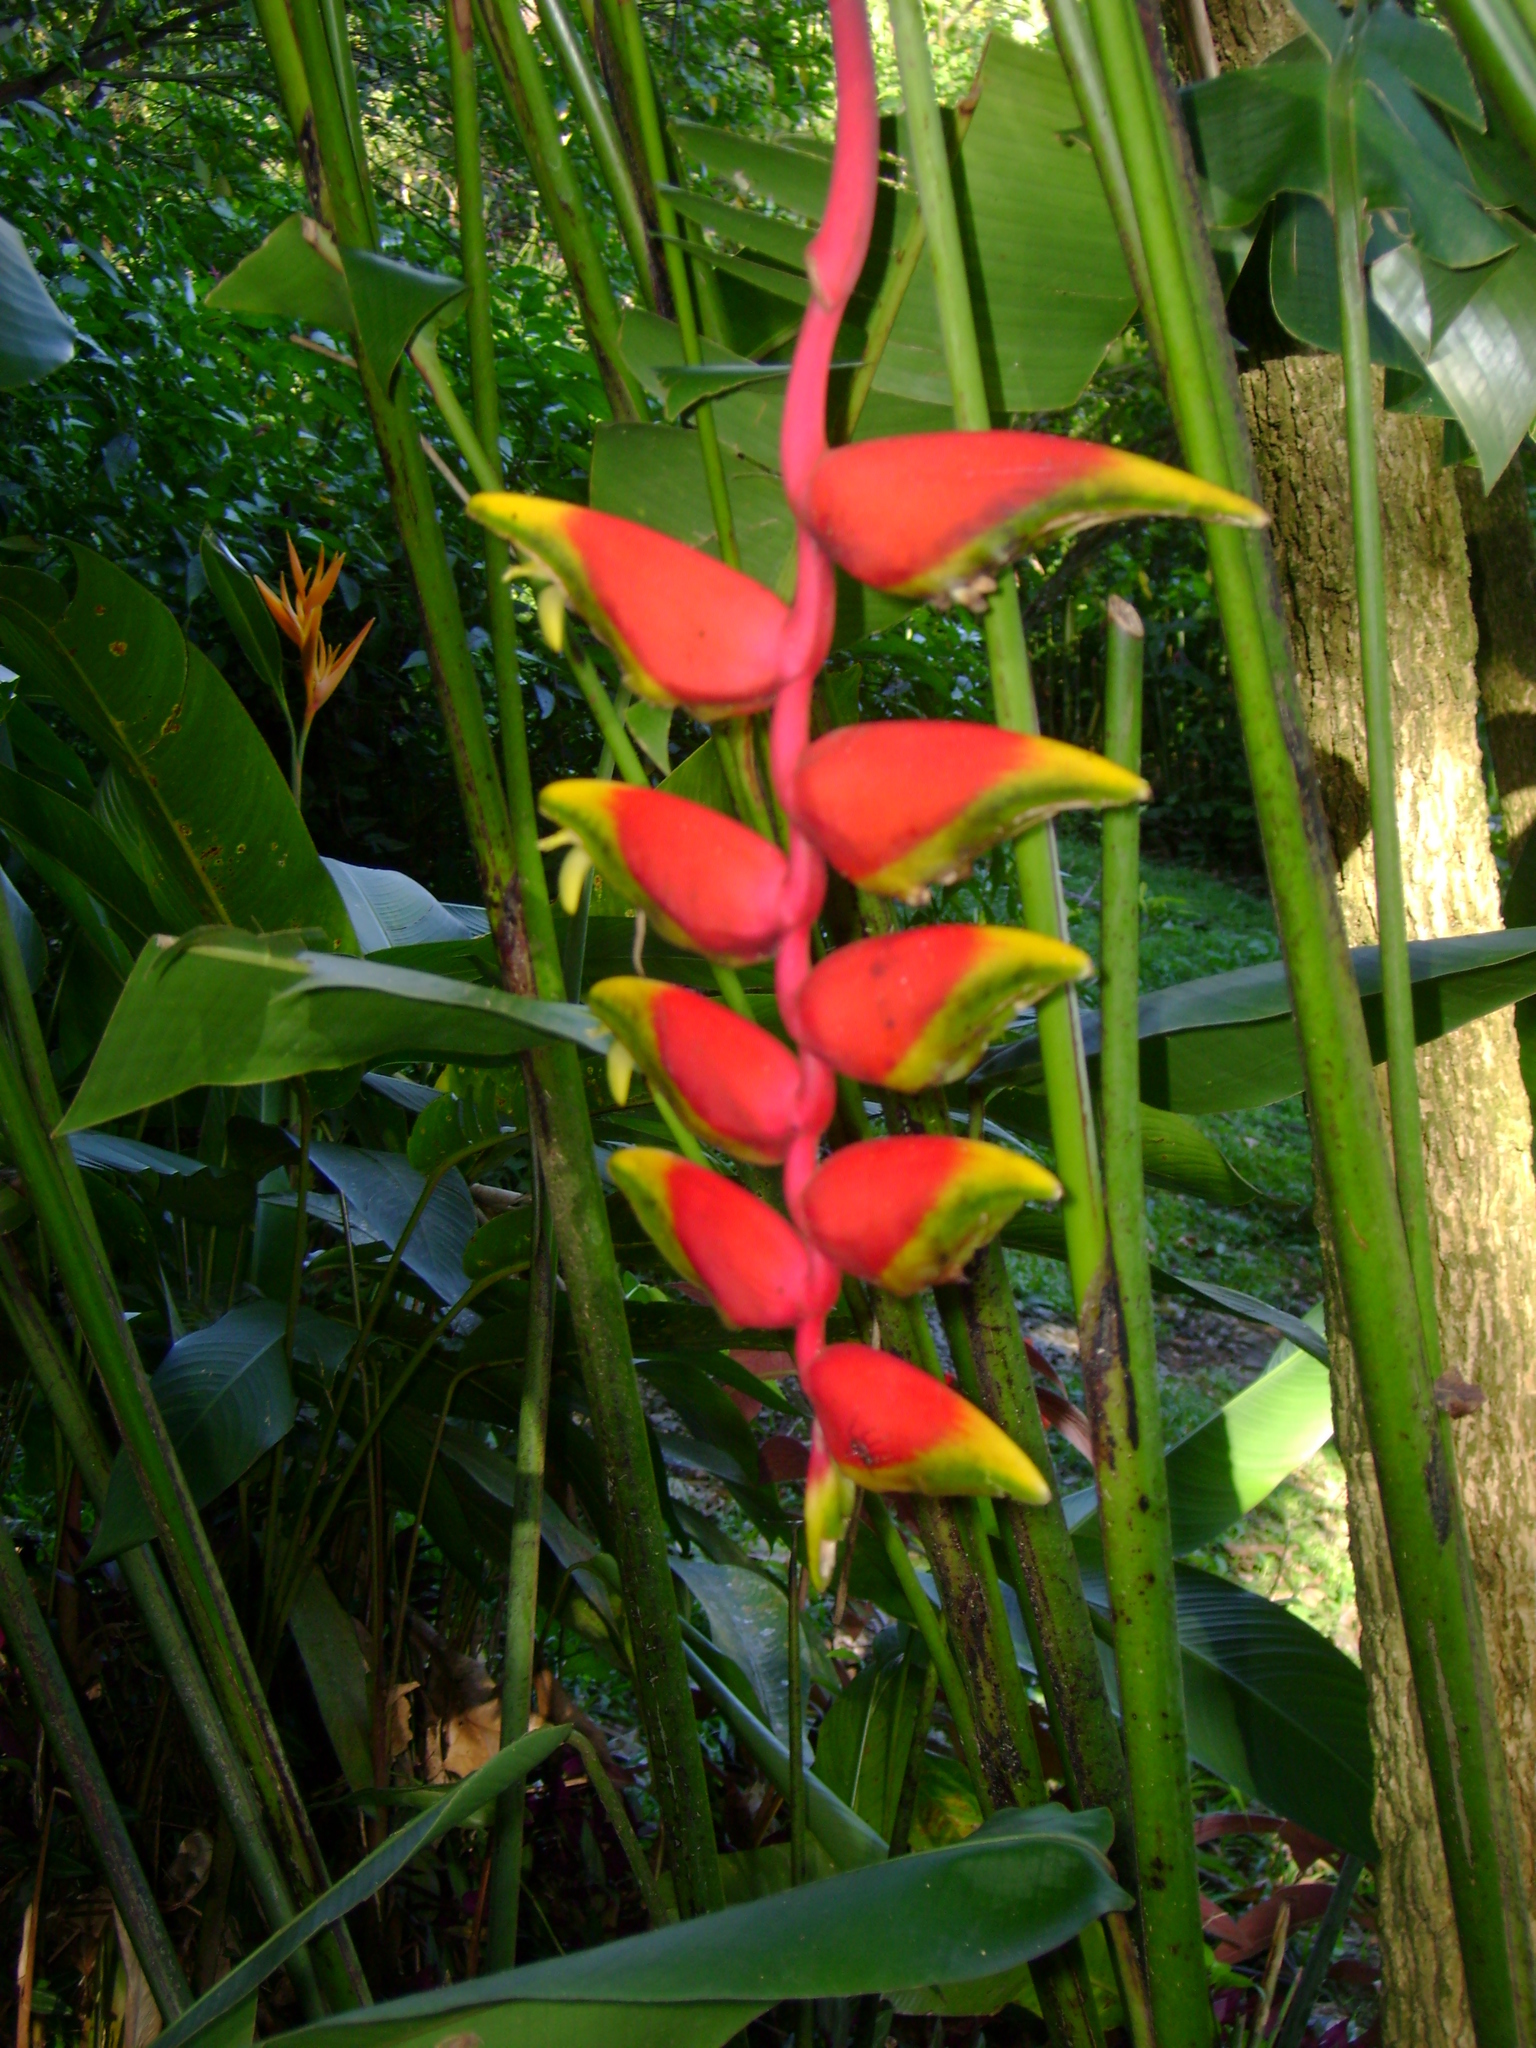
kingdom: Plantae
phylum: Tracheophyta
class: Liliopsida
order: Zingiberales
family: Heliconiaceae
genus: Heliconia
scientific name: Heliconia rostrata
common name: False bird of paradise
